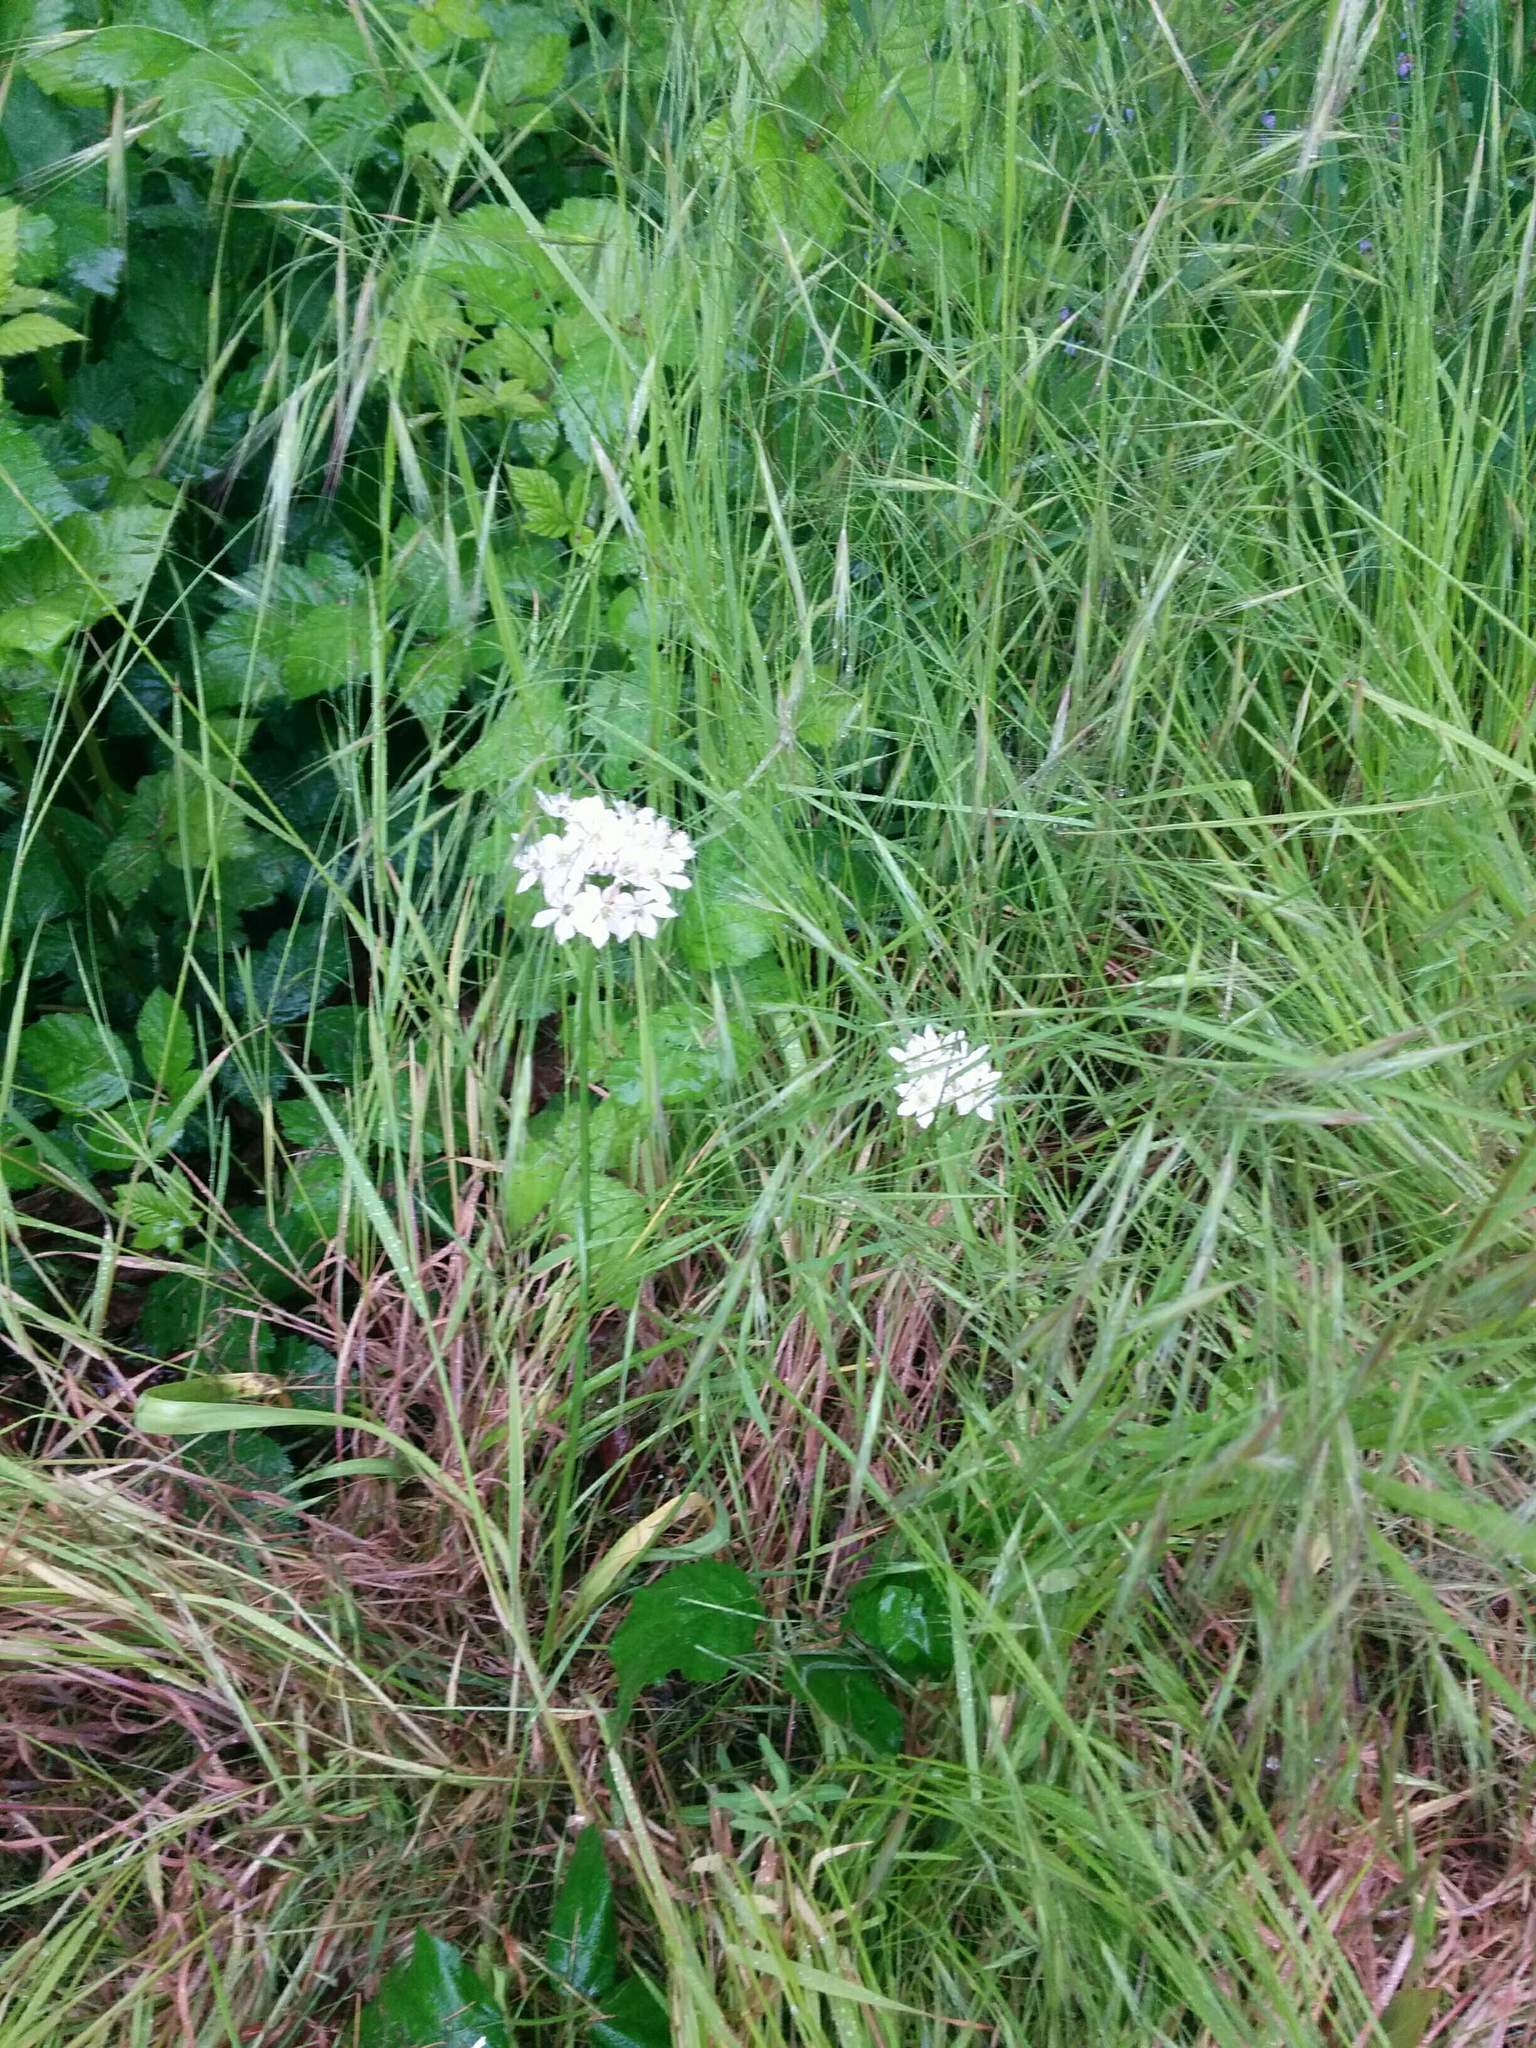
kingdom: Plantae
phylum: Tracheophyta
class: Liliopsida
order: Asparagales
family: Asparagaceae
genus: Triteleia
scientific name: Triteleia hyacinthina
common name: White brodiaea
